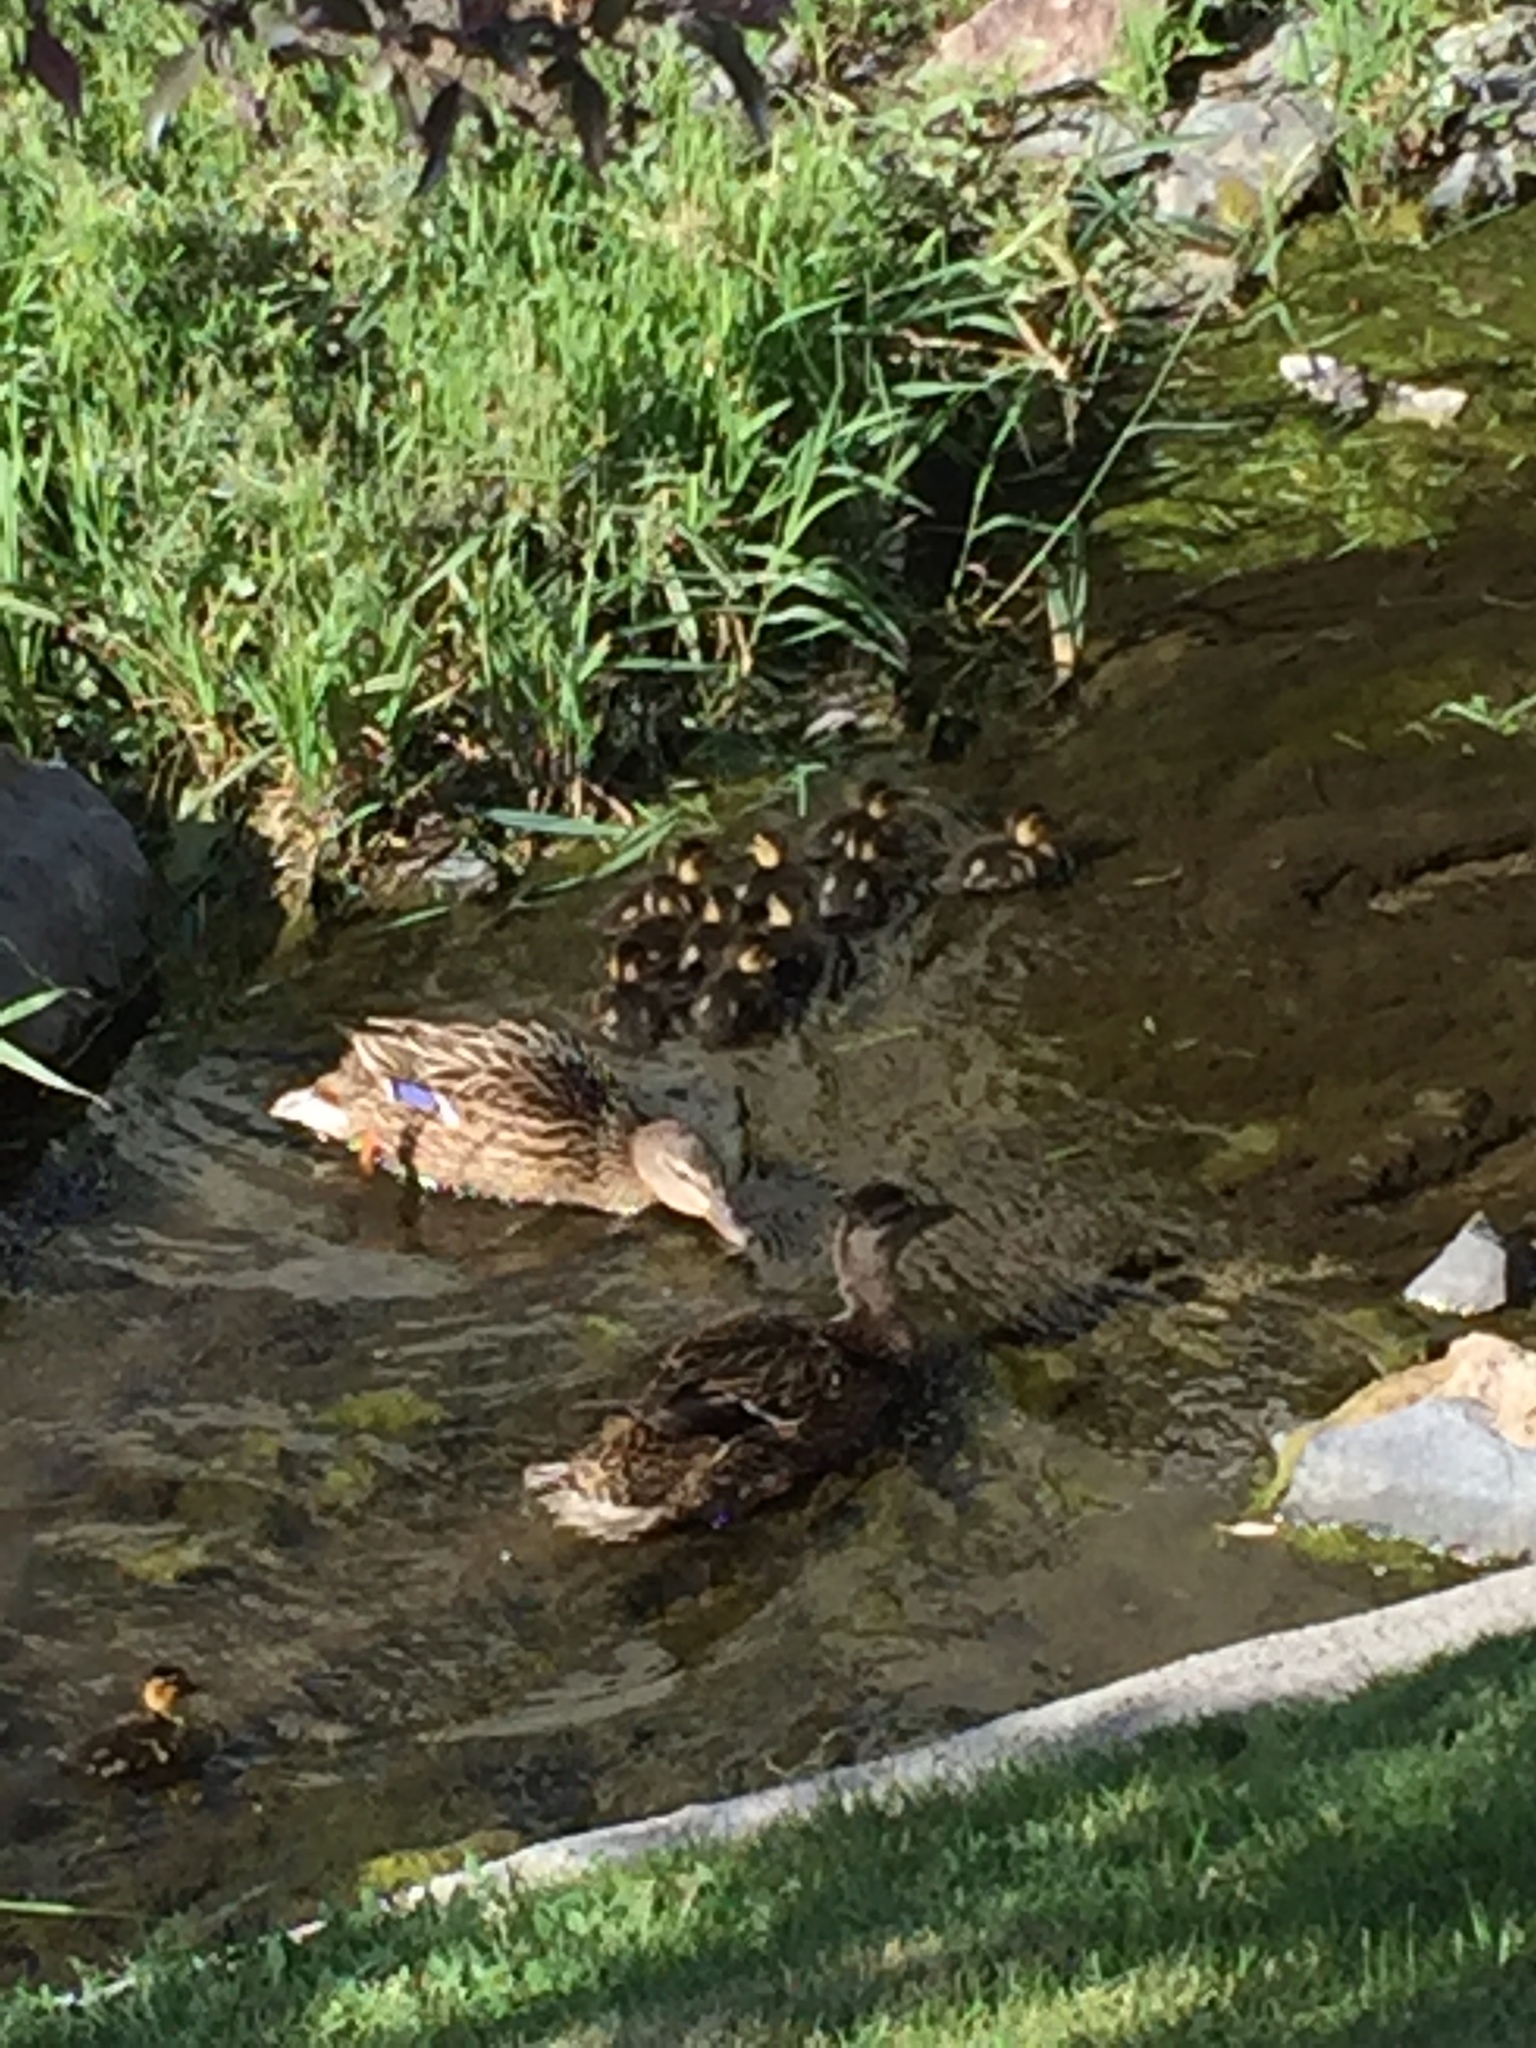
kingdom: Animalia
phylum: Chordata
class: Aves
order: Anseriformes
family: Anatidae
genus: Anas
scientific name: Anas platyrhynchos
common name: Mallard
